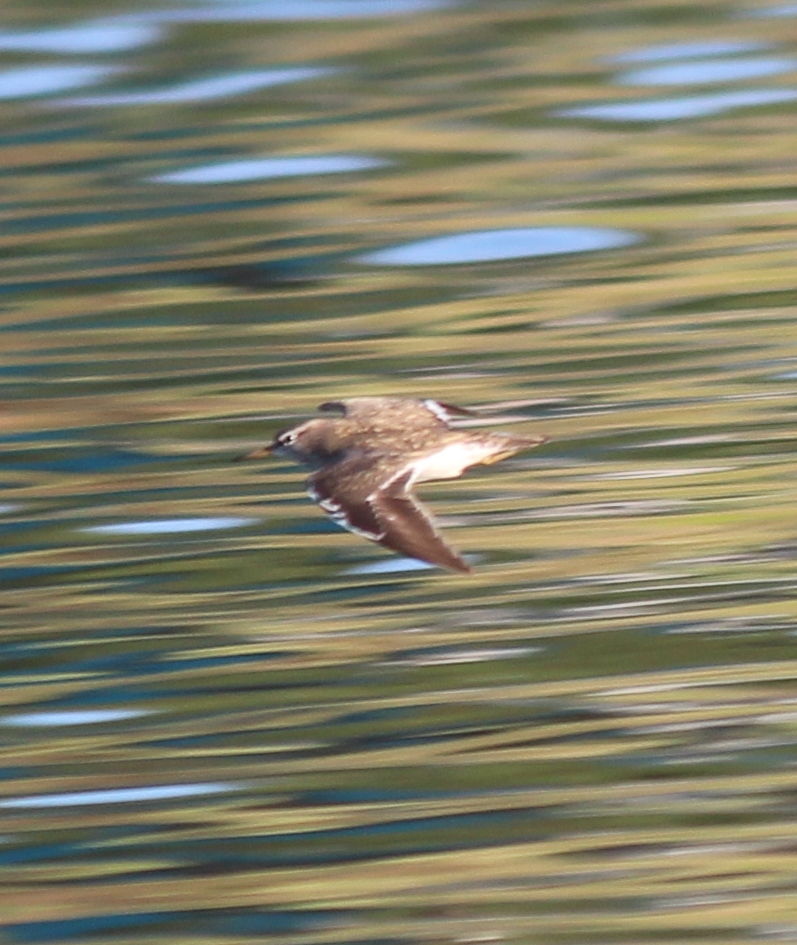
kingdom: Animalia
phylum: Chordata
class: Aves
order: Charadriiformes
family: Scolopacidae
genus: Actitis
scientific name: Actitis hypoleucos
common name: Common sandpiper
